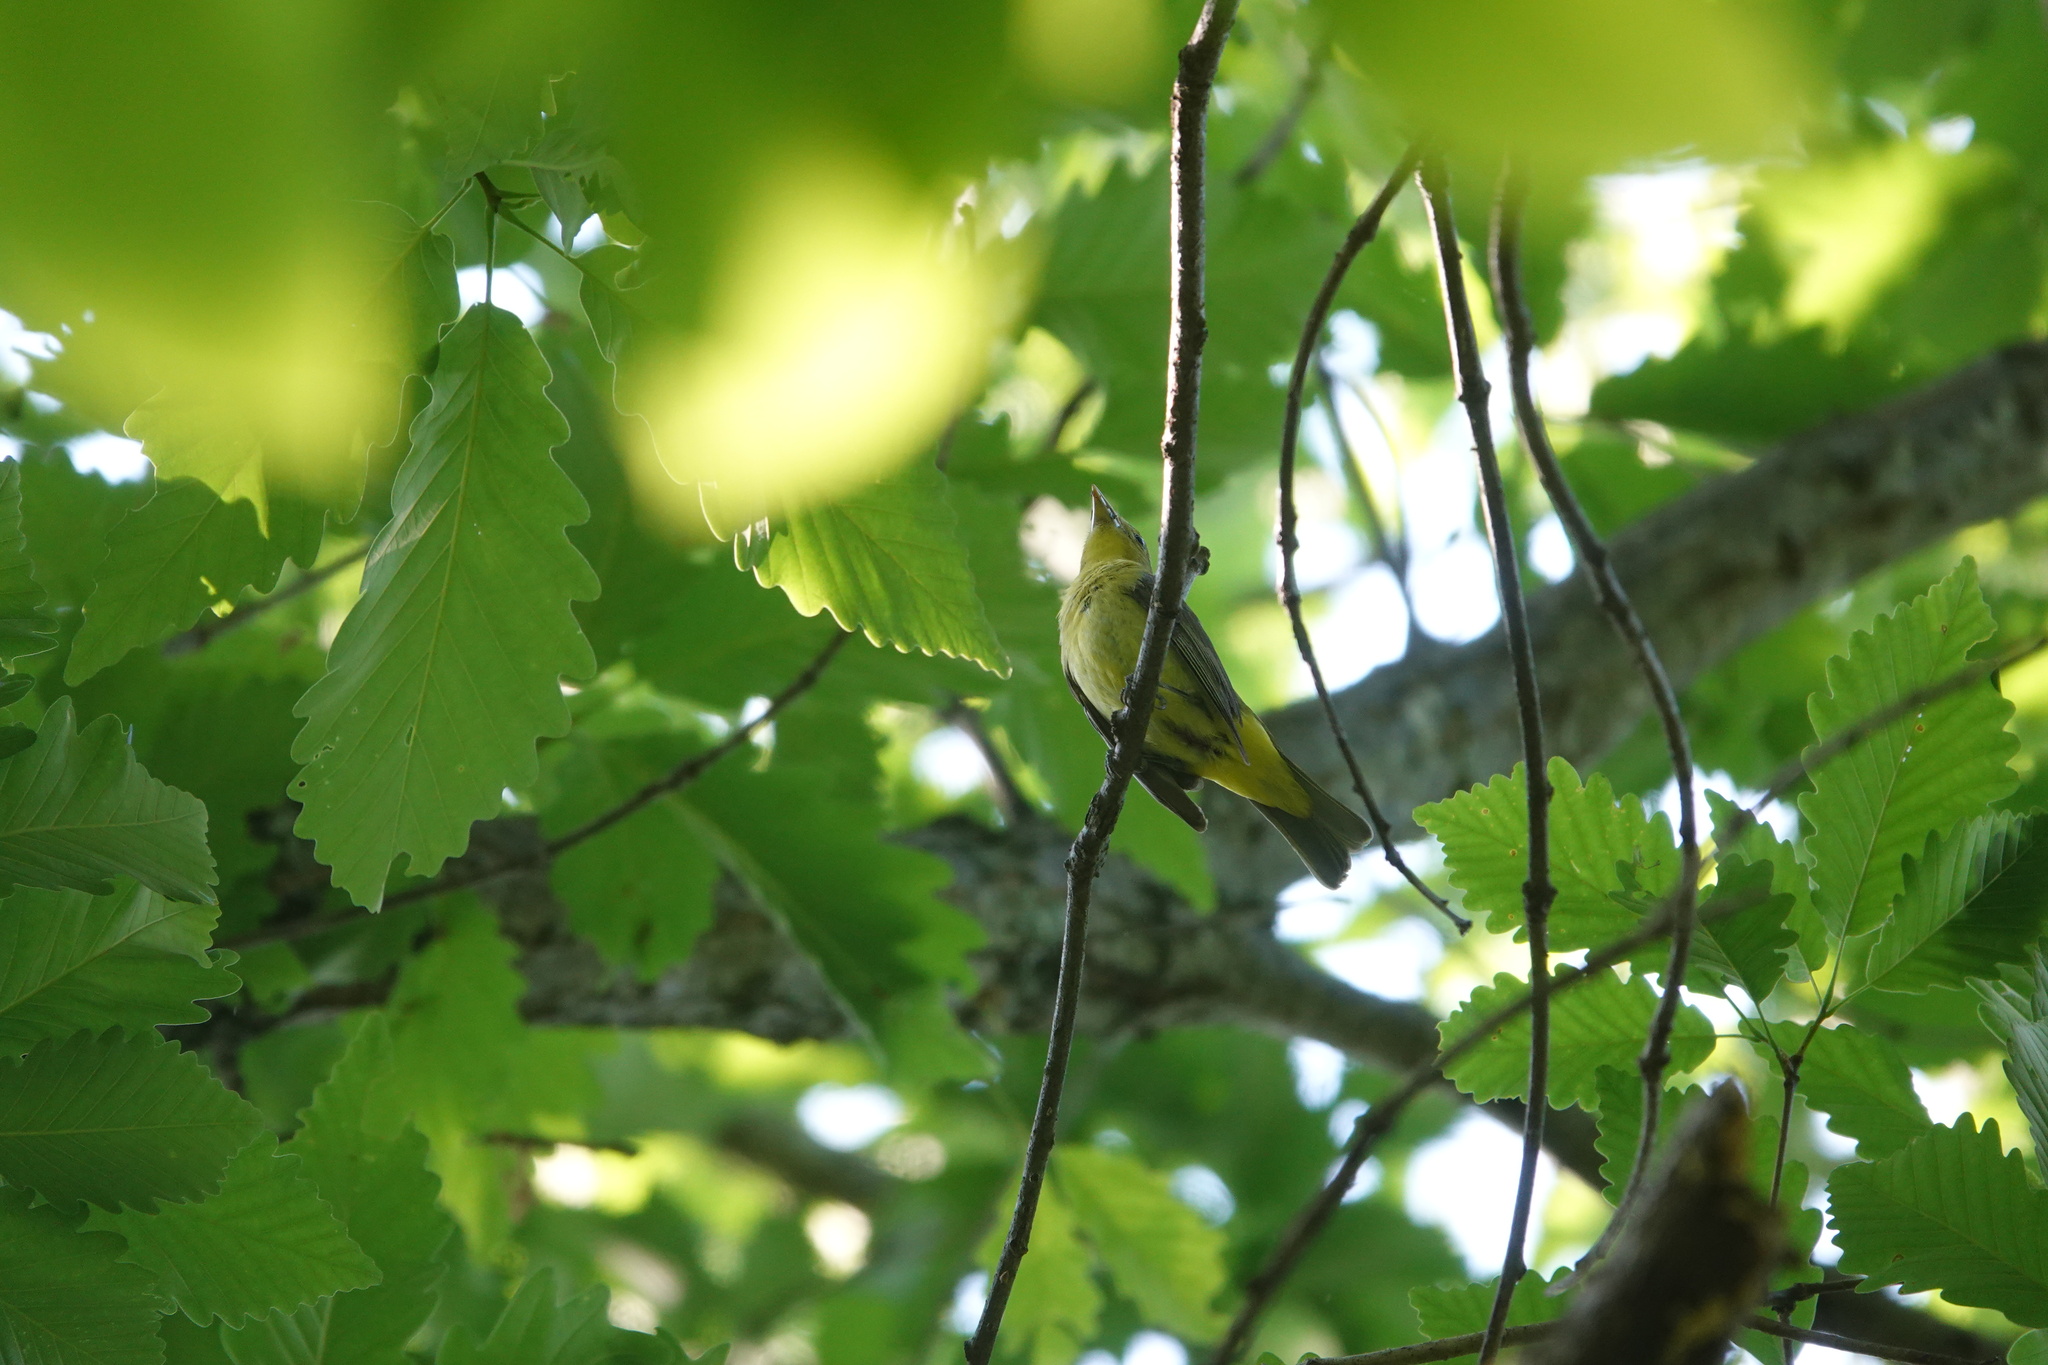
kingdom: Animalia
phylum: Chordata
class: Aves
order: Passeriformes
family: Cardinalidae
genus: Piranga
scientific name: Piranga olivacea
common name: Scarlet tanager
